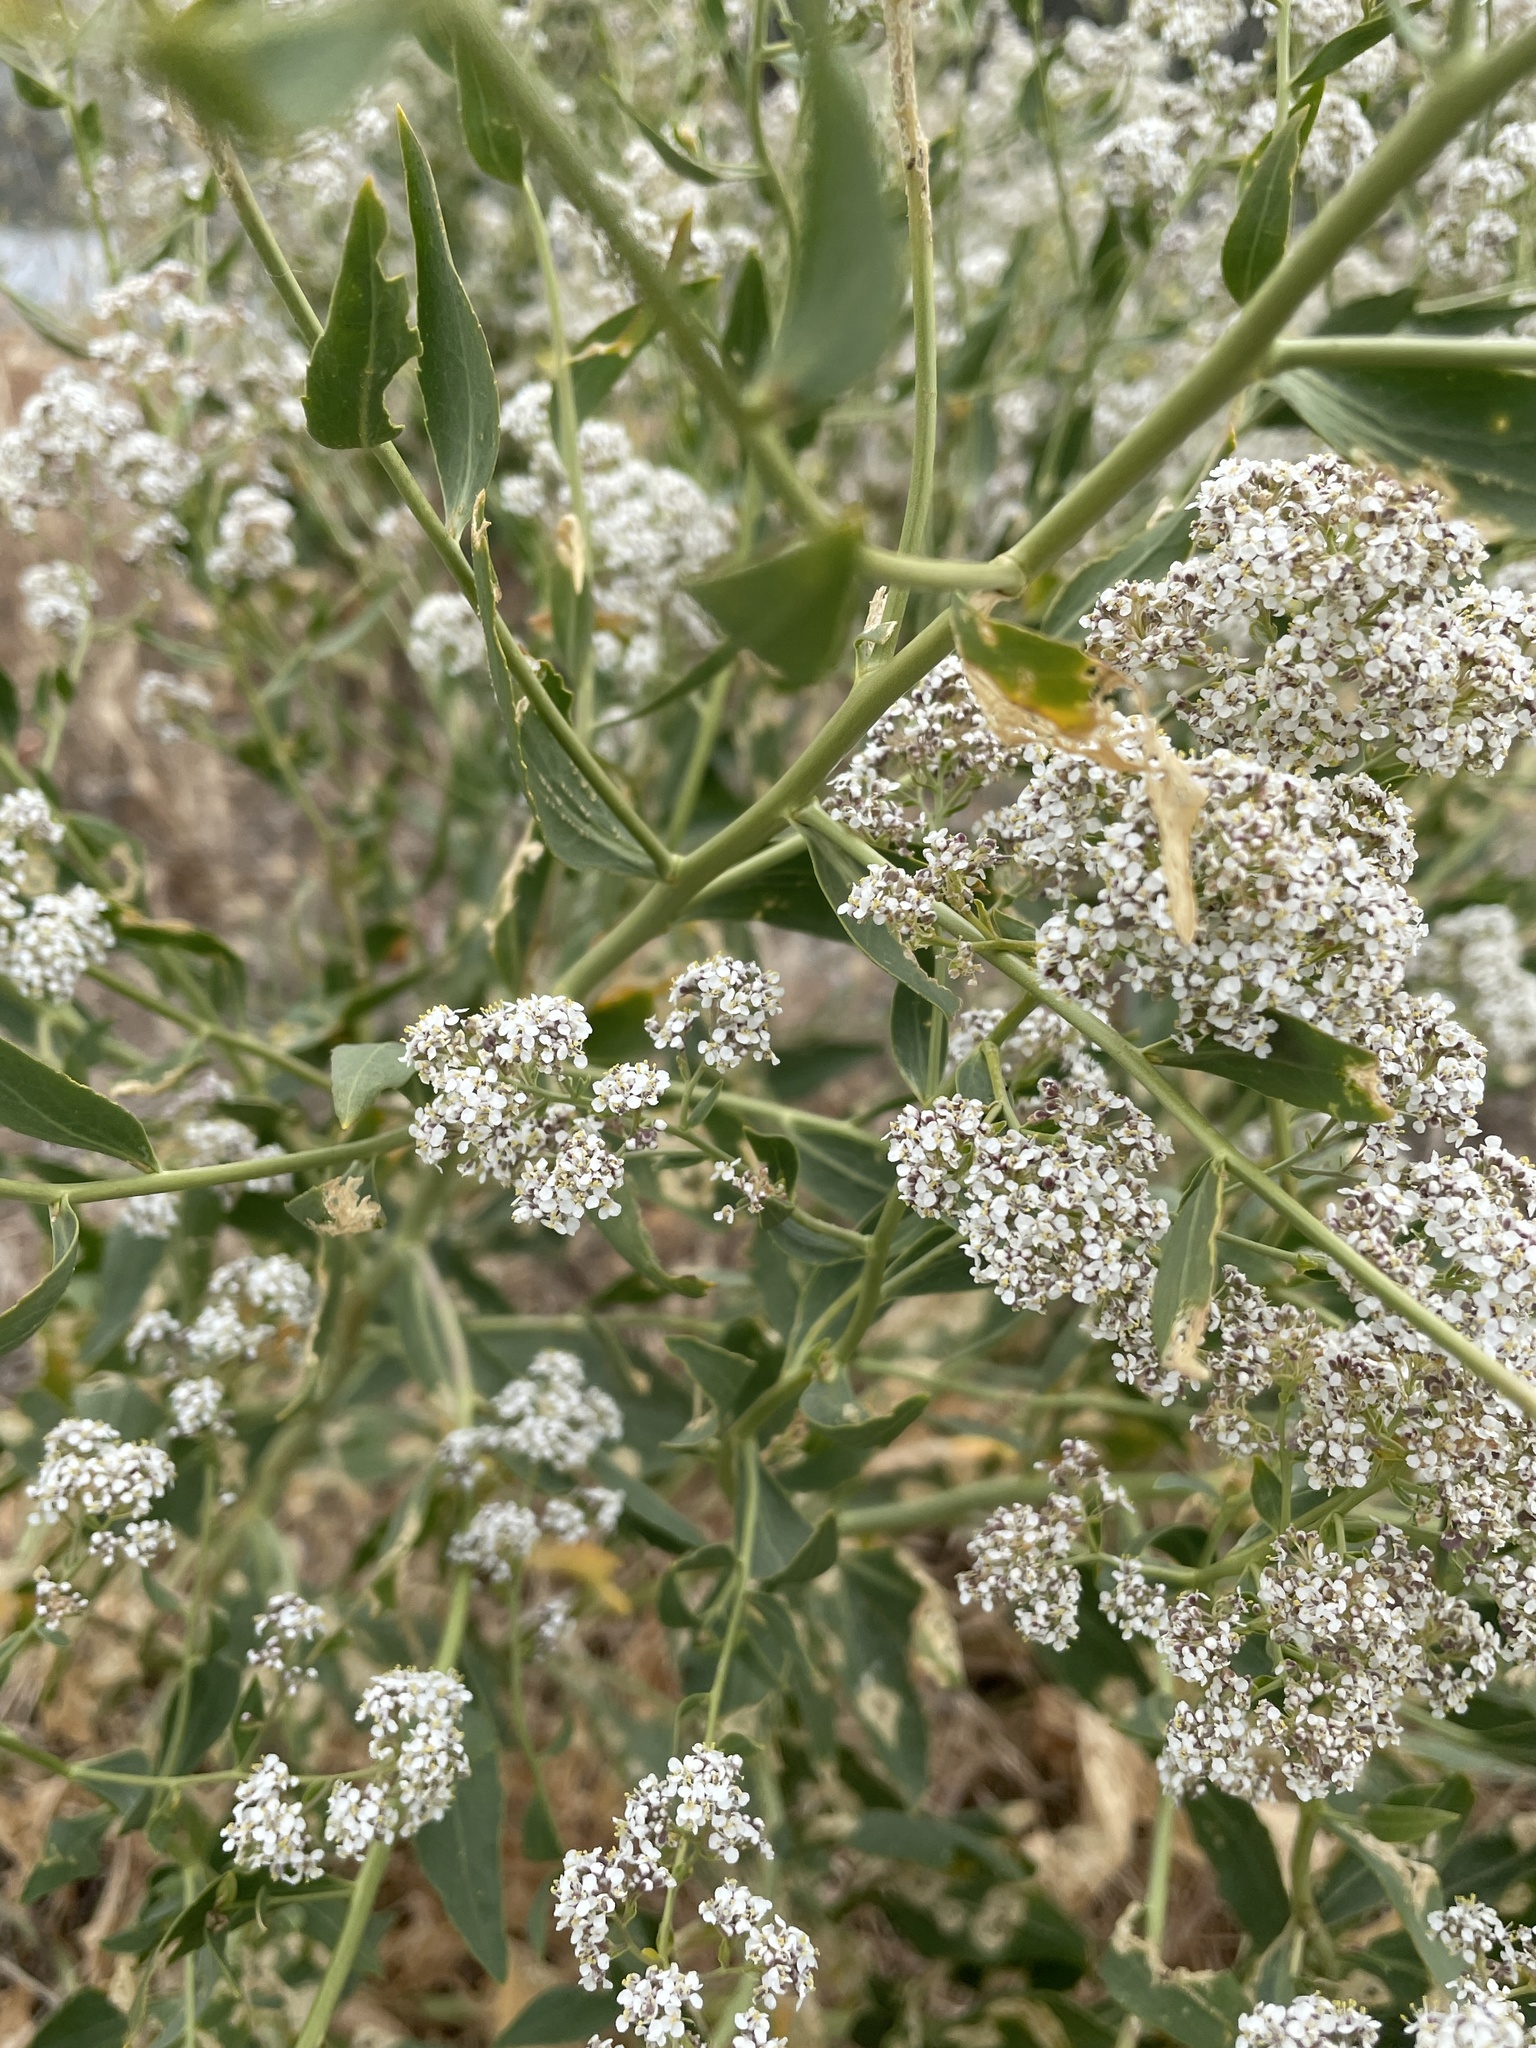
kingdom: Plantae
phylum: Tracheophyta
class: Magnoliopsida
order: Brassicales
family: Brassicaceae
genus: Lepidium
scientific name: Lepidium latifolium
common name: Dittander
